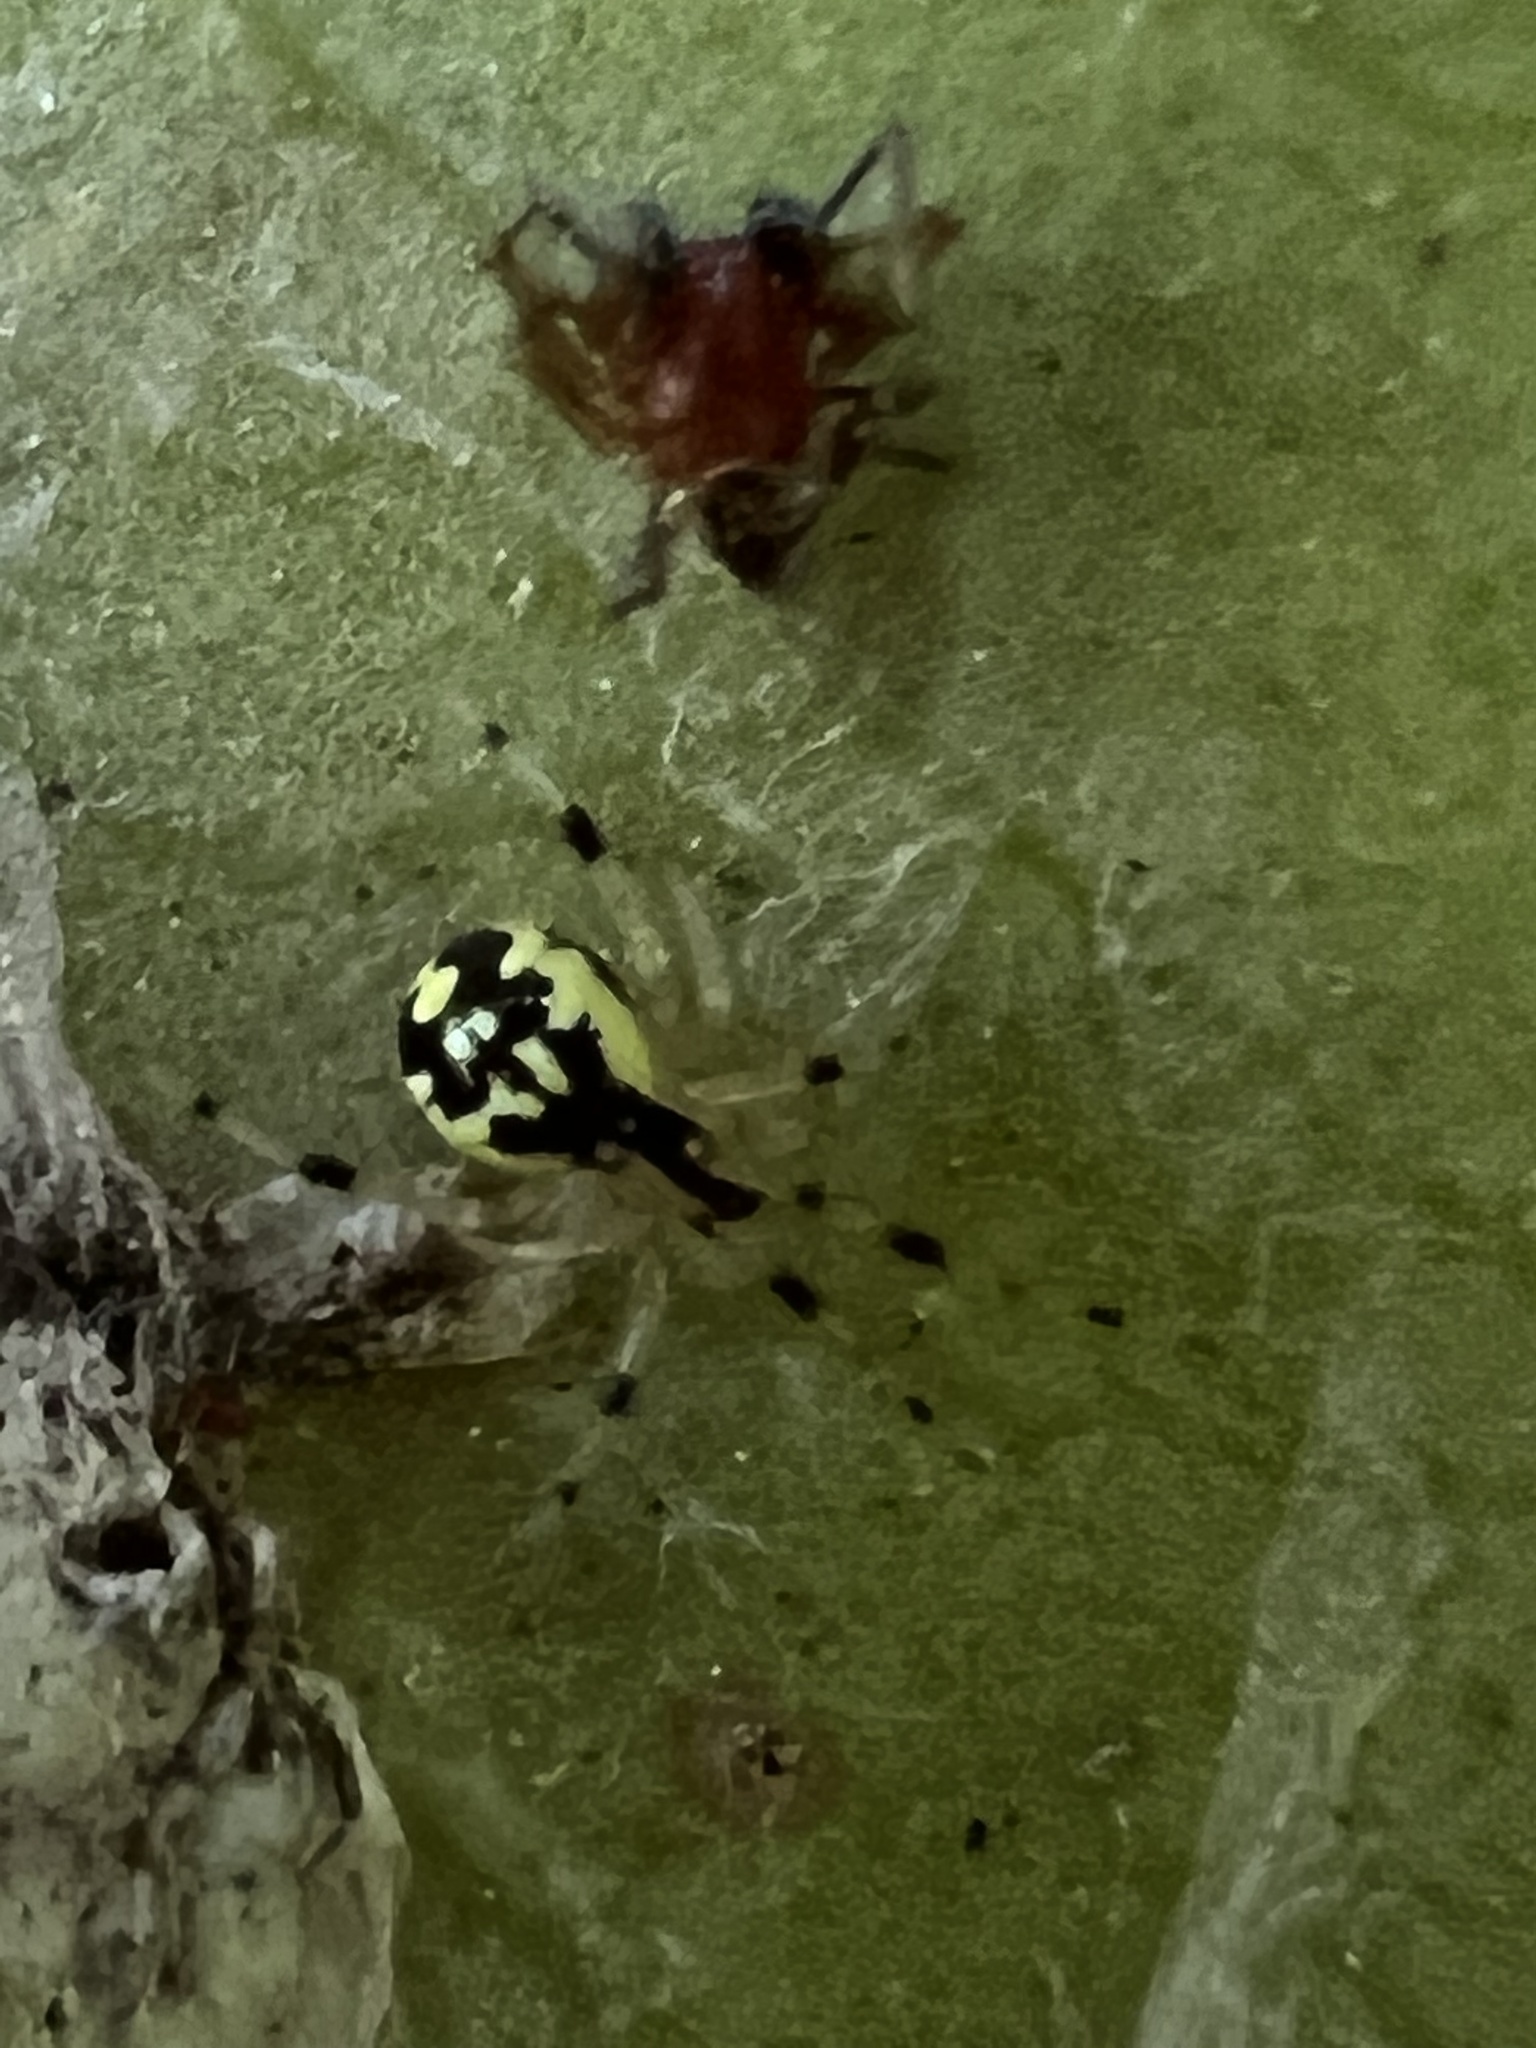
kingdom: Animalia
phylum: Arthropoda
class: Arachnida
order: Araneae
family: Theridiidae
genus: Phylloneta
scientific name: Phylloneta pictipes
